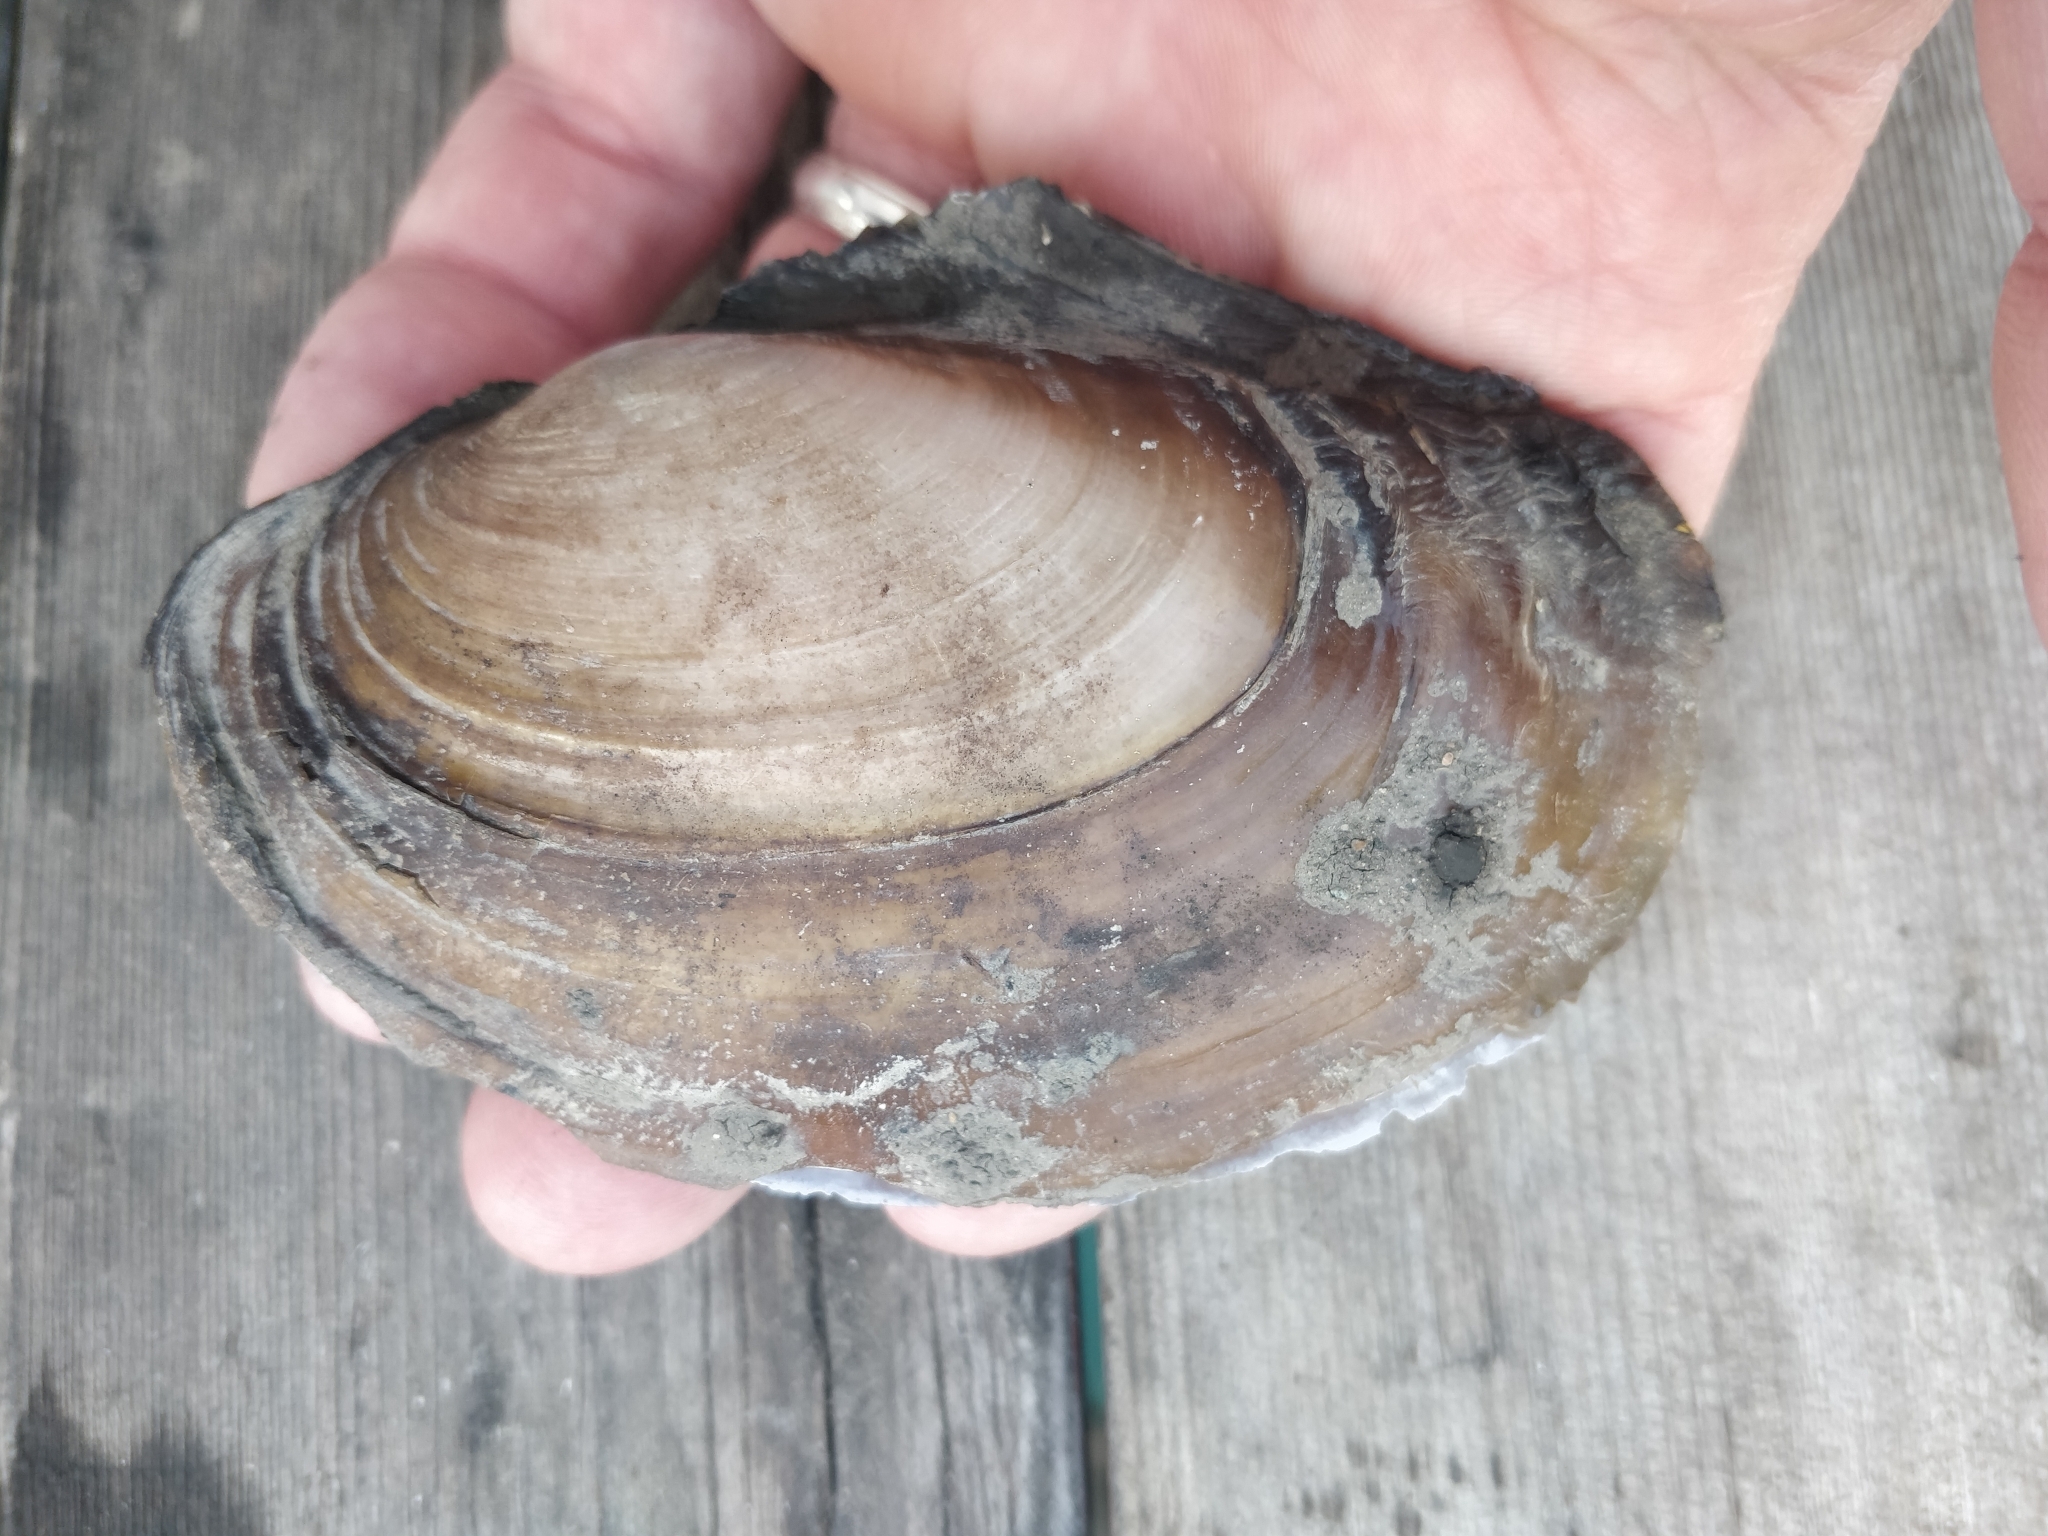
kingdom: Animalia
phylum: Mollusca
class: Bivalvia
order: Unionida
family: Unionidae
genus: Potamilus
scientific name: Potamilus ohiensis
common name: Pink papershell
